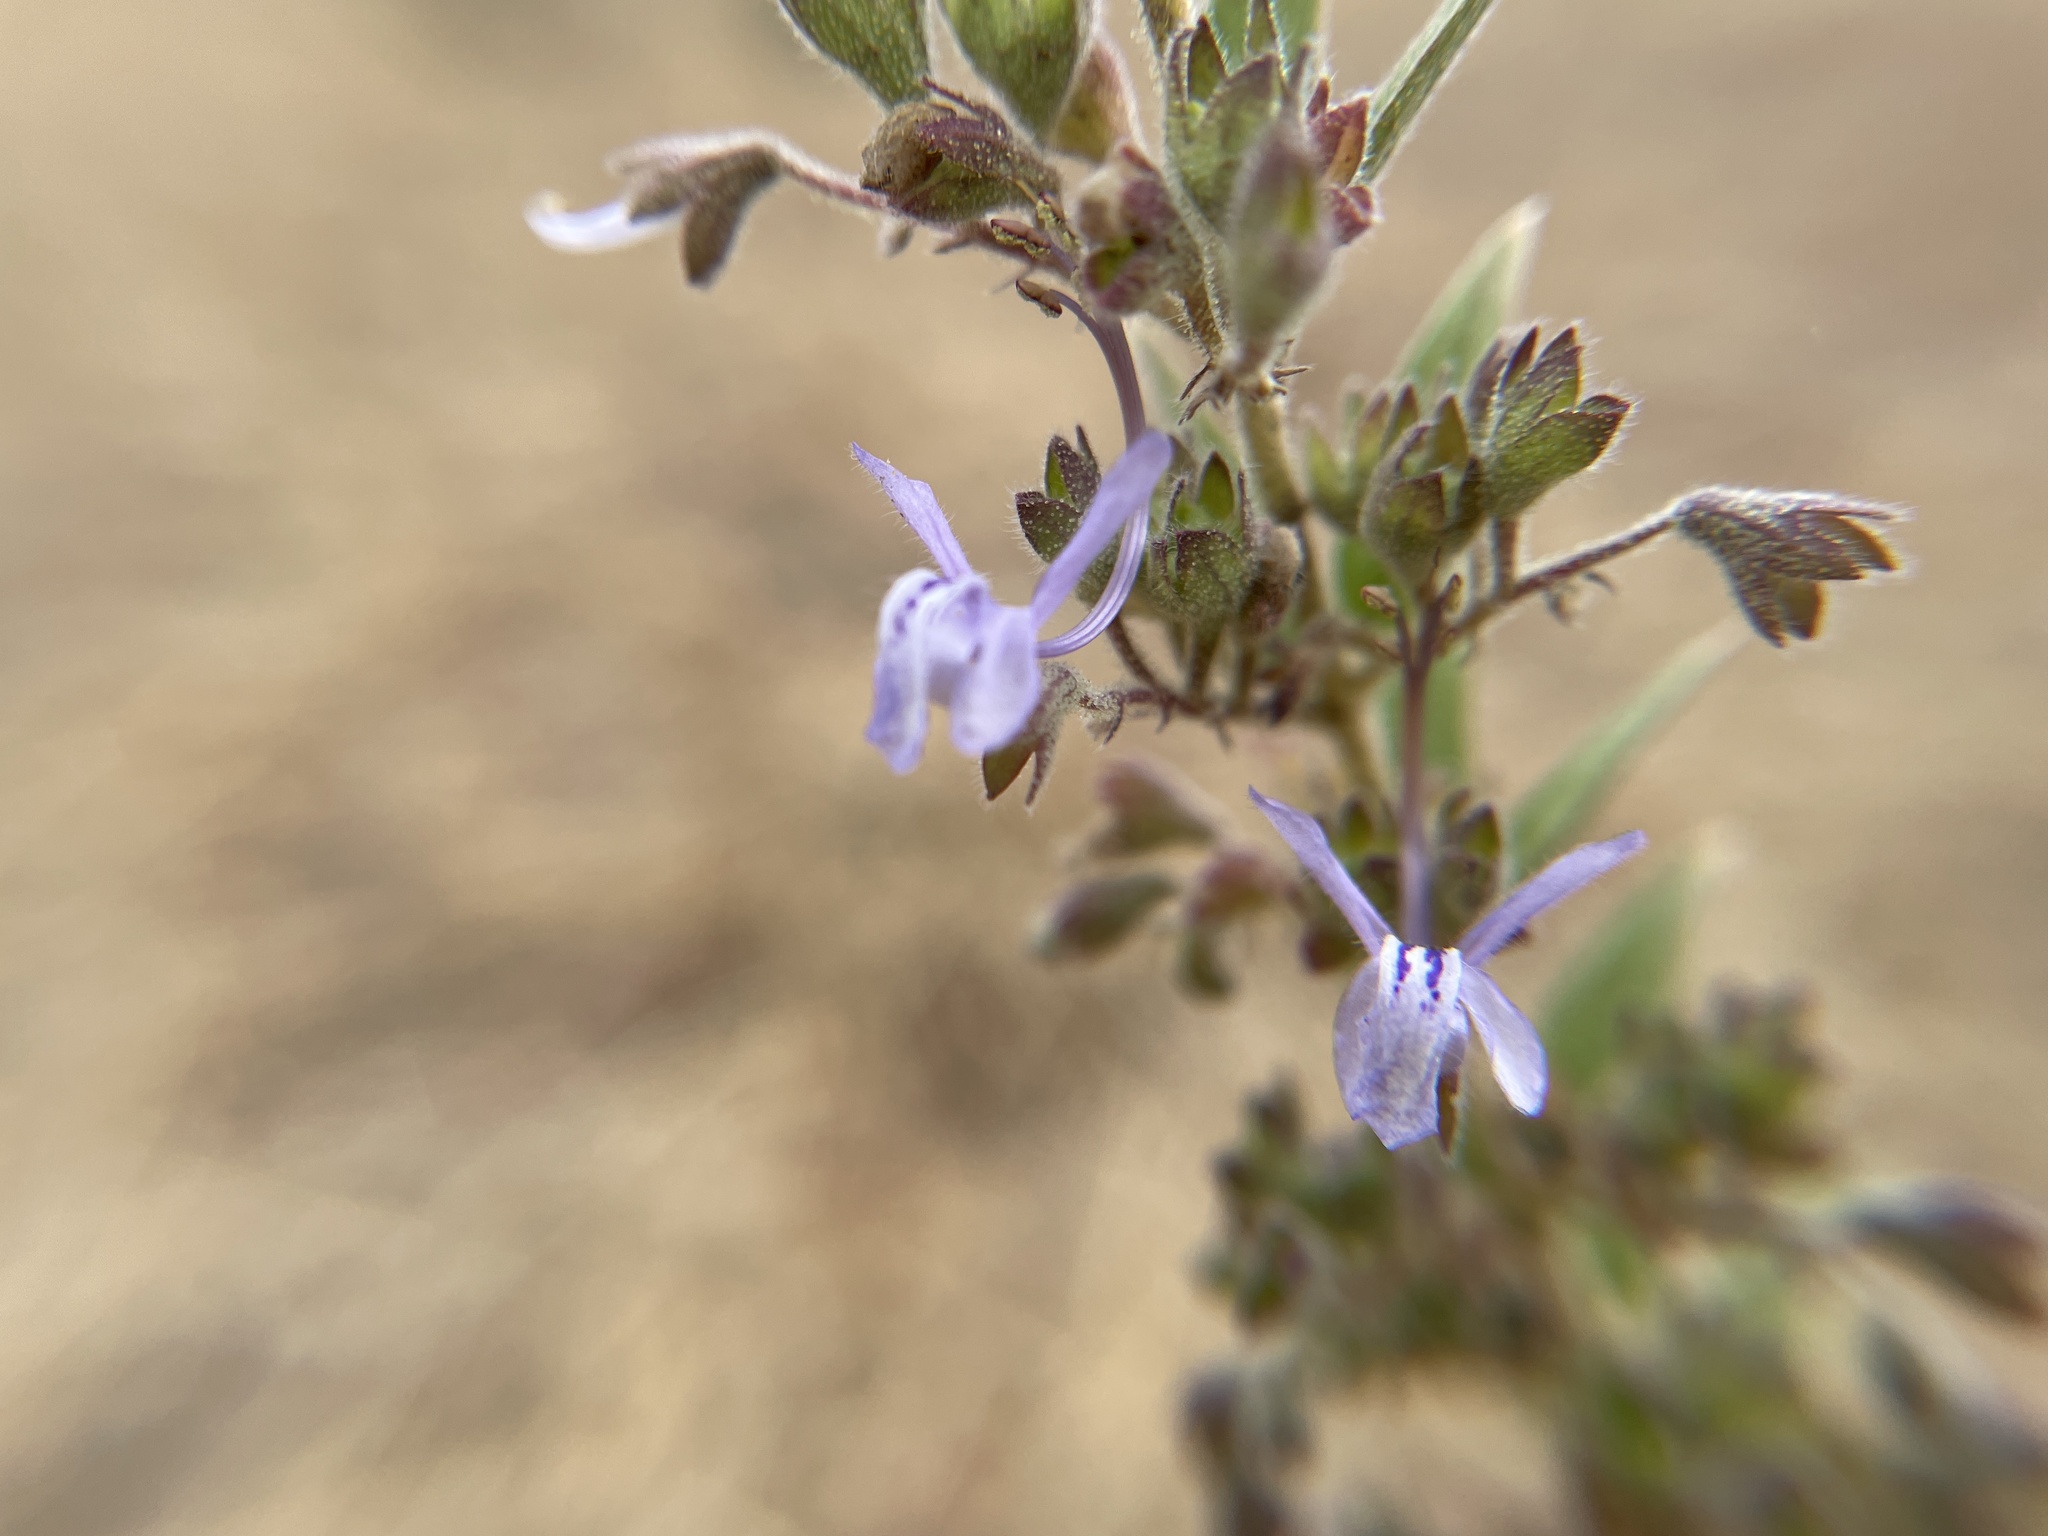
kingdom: Plantae
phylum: Tracheophyta
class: Magnoliopsida
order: Lamiales
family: Lamiaceae
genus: Trichostema
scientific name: Trichostema lanceolatum
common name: Vinegar-weed
